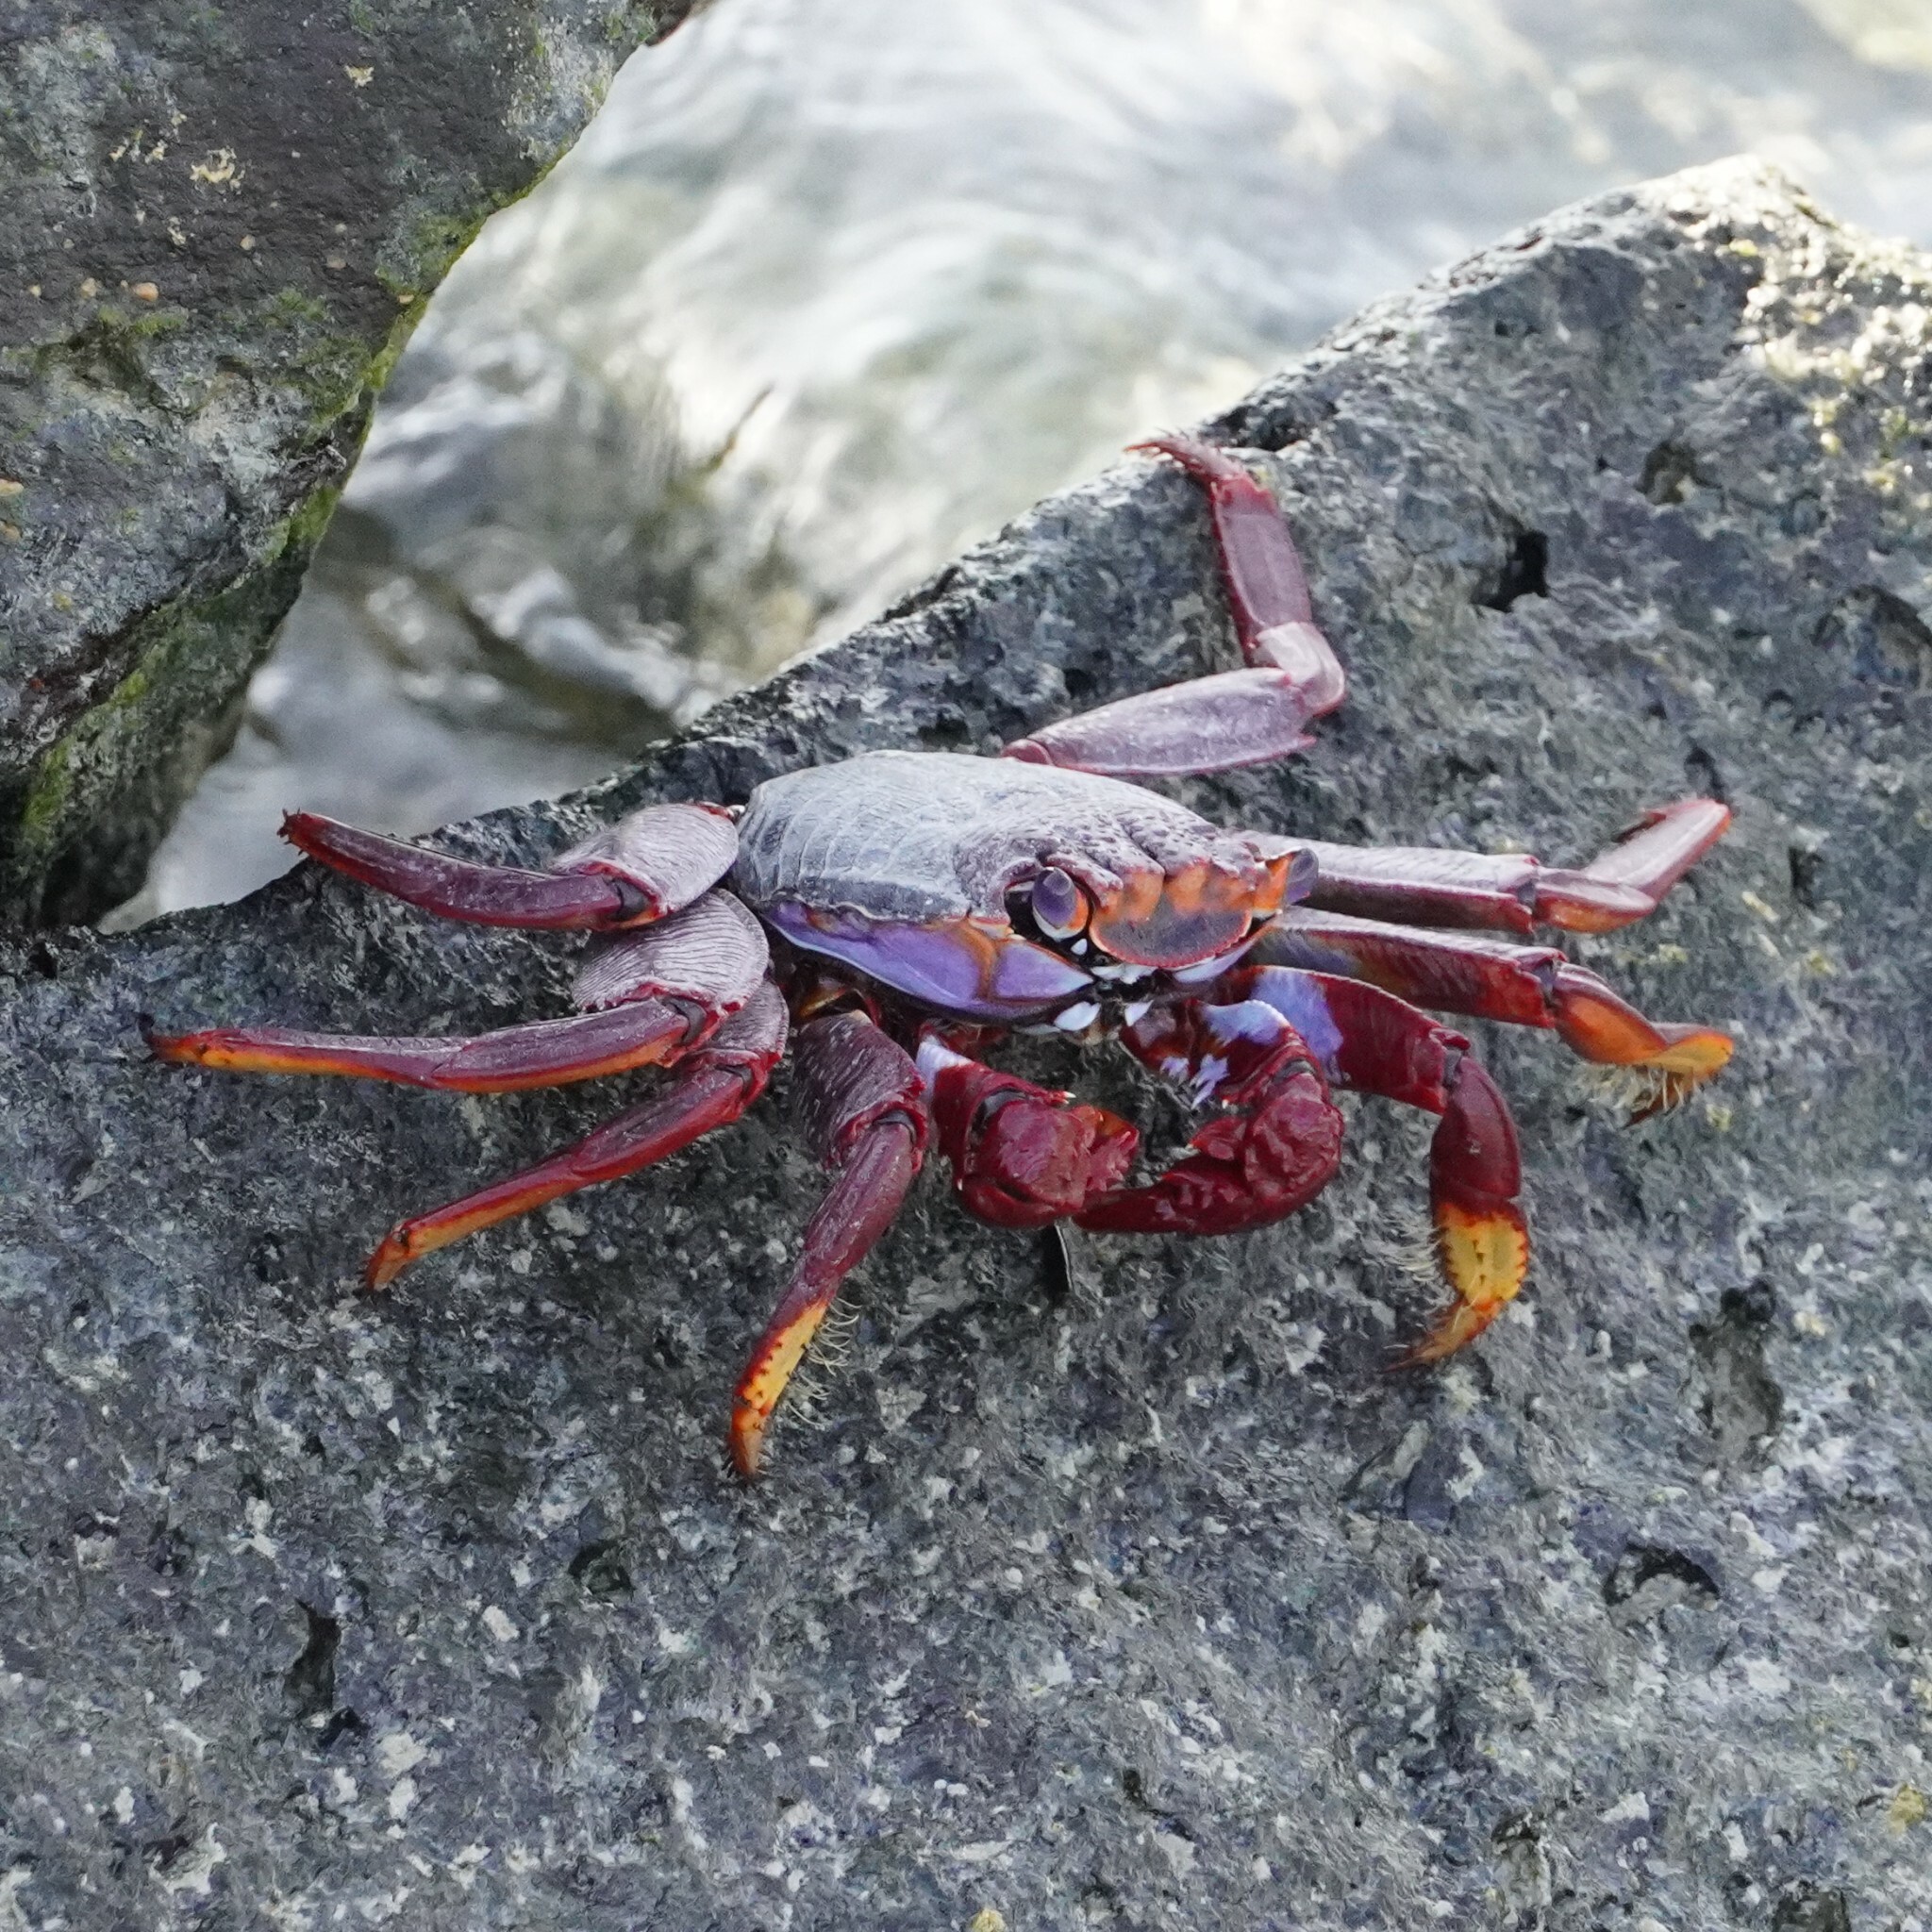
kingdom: Animalia
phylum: Arthropoda
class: Malacostraca
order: Decapoda
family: Grapsidae
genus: Grapsus
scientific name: Grapsus adscensionis
